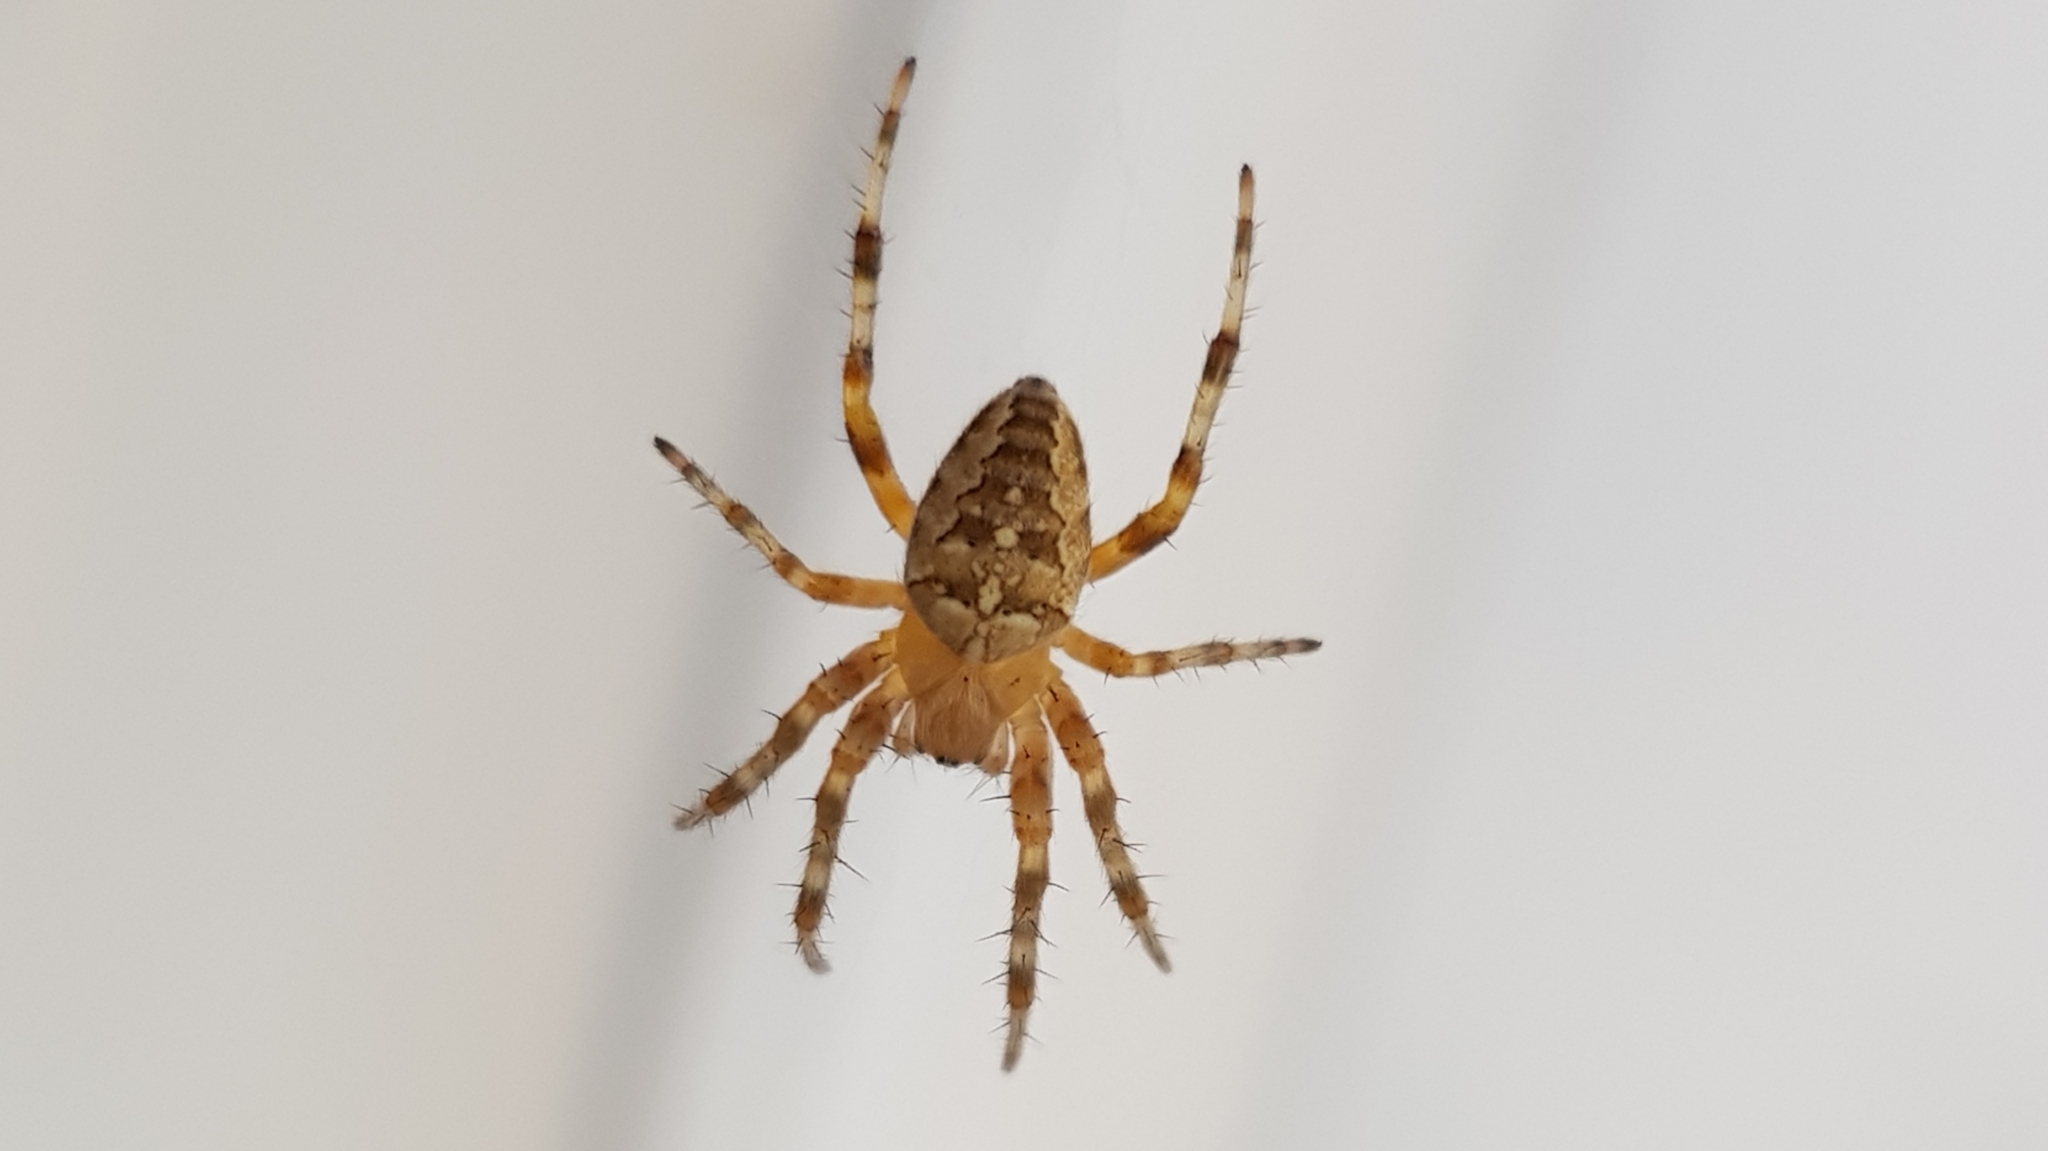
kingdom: Animalia
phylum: Arthropoda
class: Arachnida
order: Araneae
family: Araneidae
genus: Araneus
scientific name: Araneus diadematus
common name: Cross orbweaver
